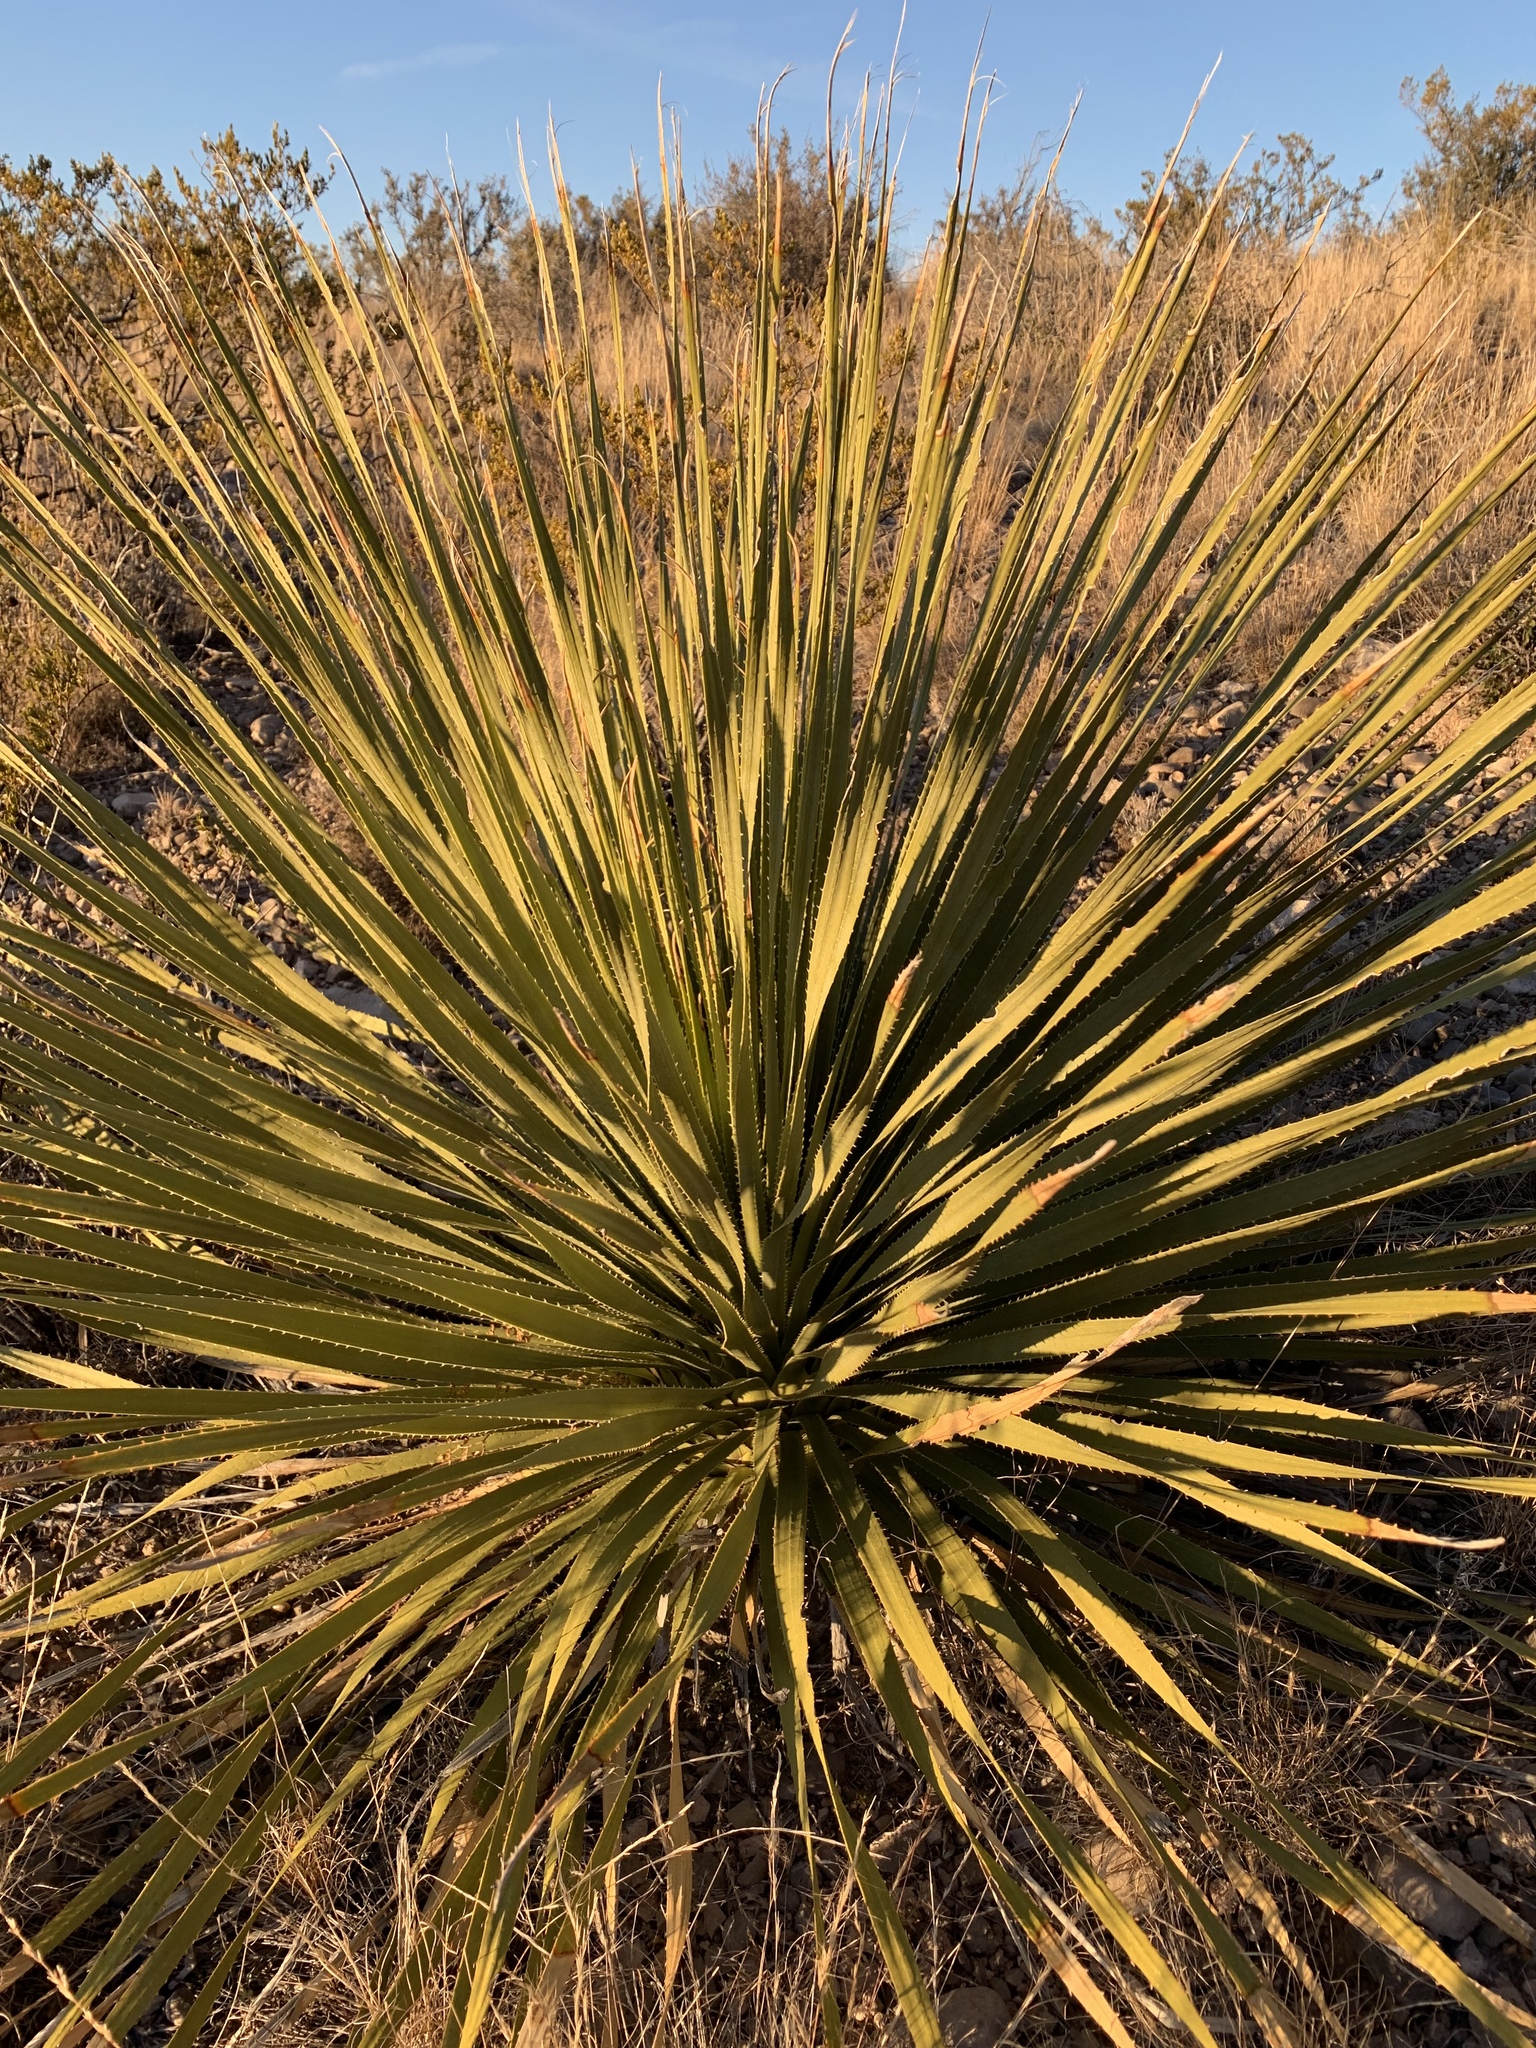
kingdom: Plantae
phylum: Tracheophyta
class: Liliopsida
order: Asparagales
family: Asparagaceae
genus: Dasylirion
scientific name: Dasylirion wheeleri
